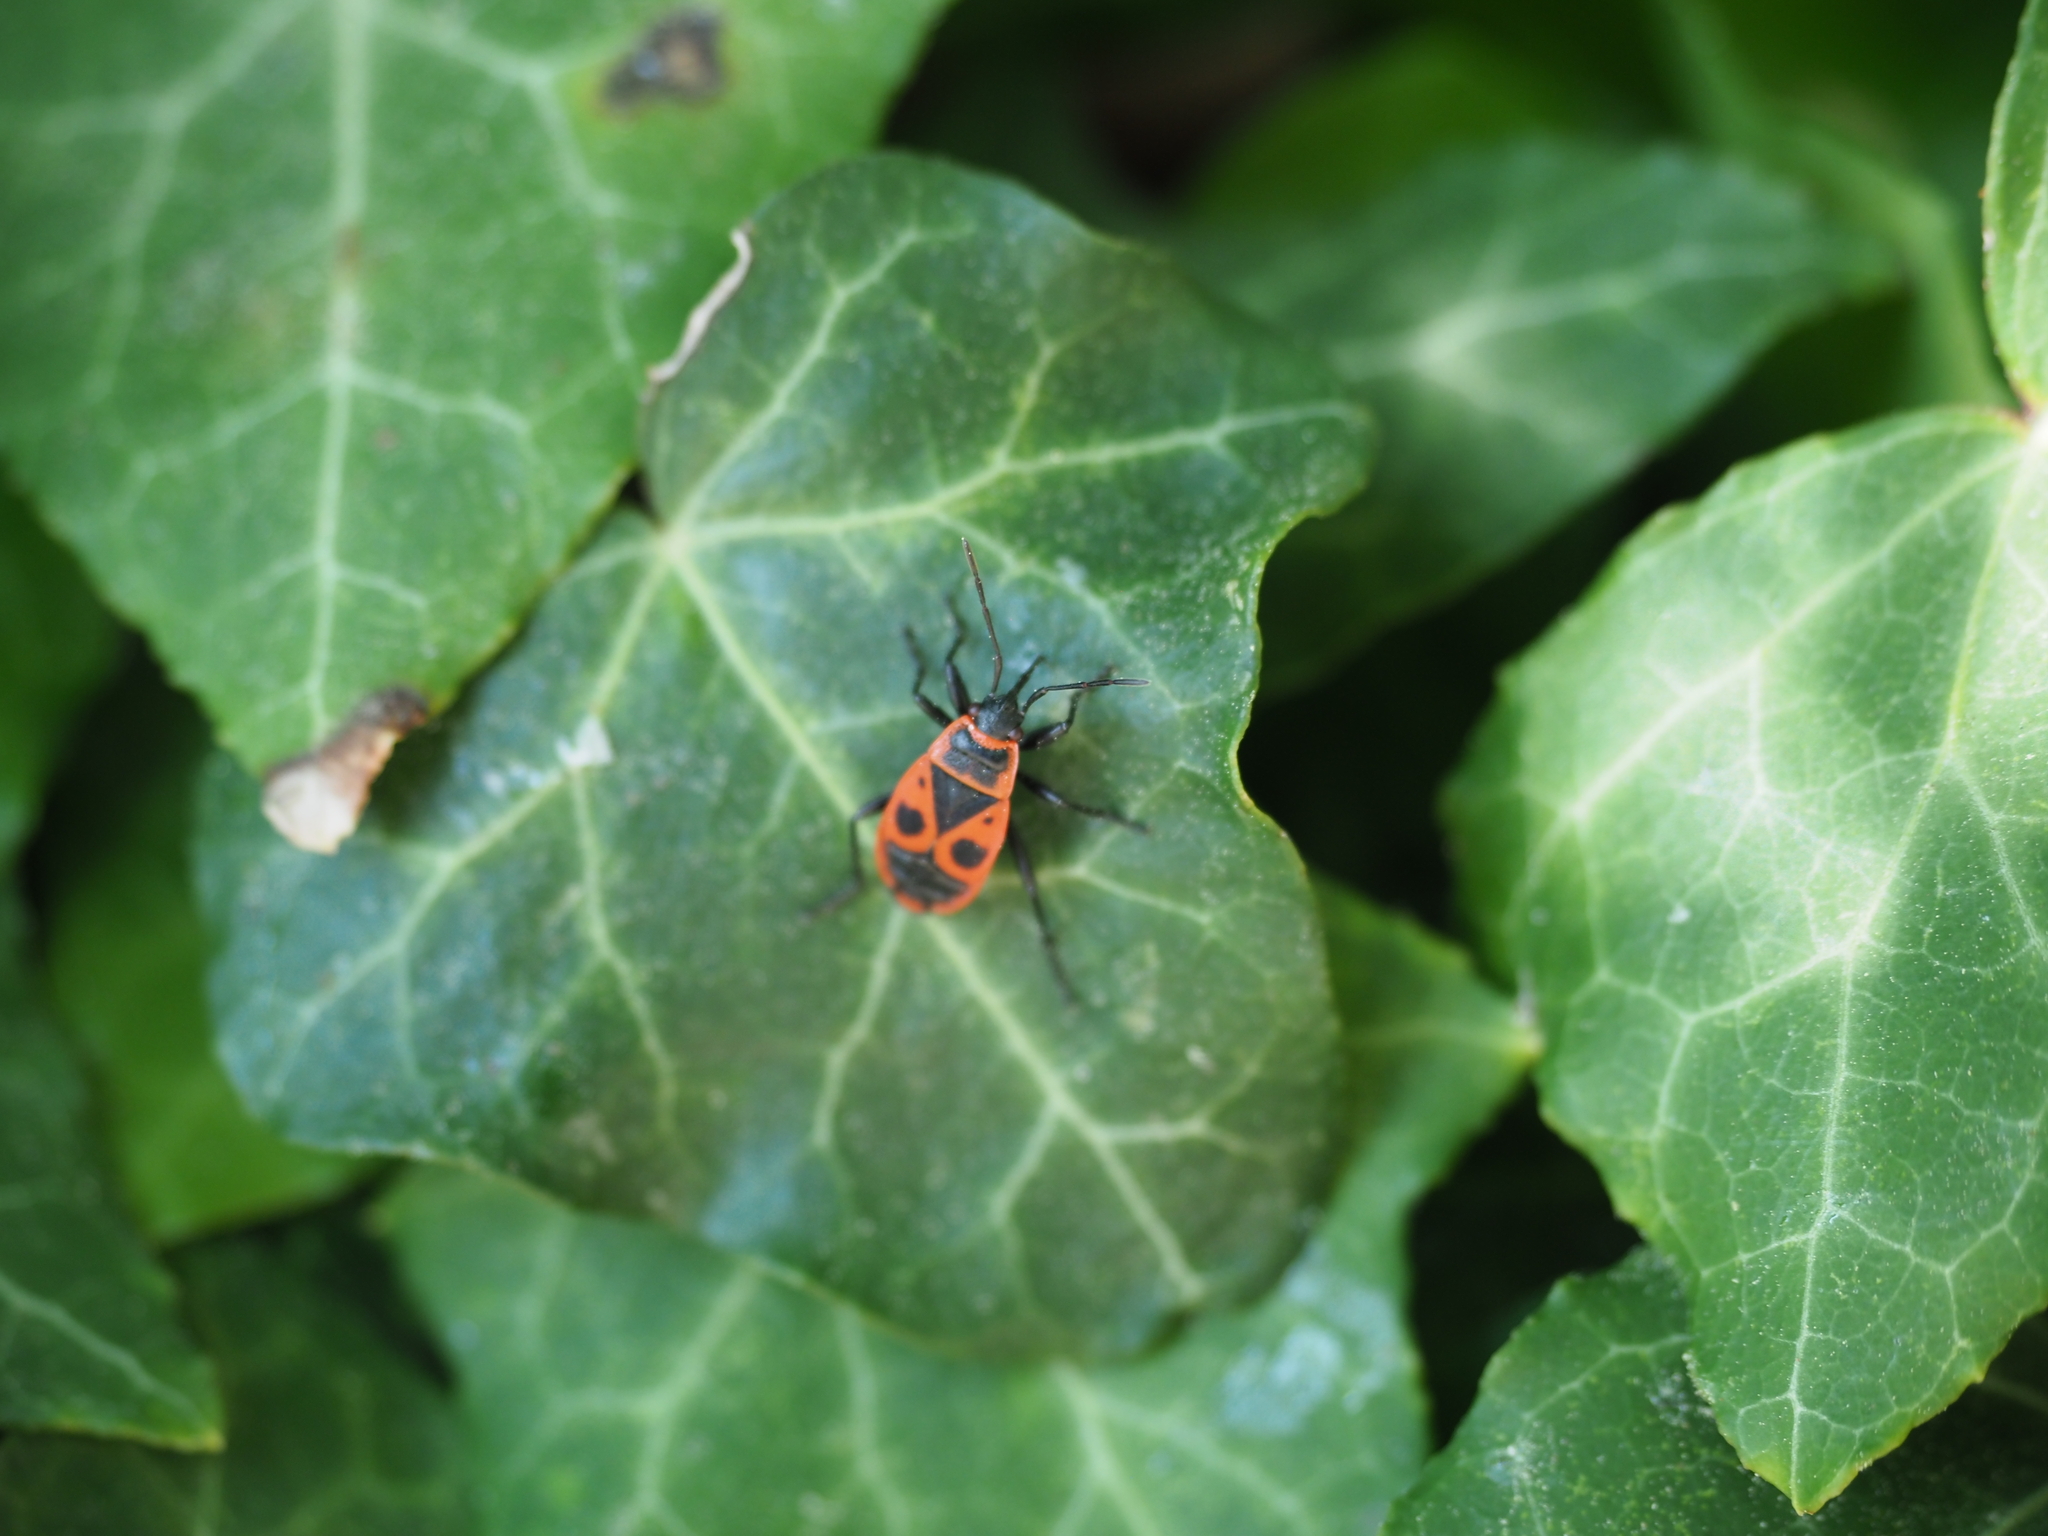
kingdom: Animalia
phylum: Arthropoda
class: Insecta
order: Hemiptera
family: Pyrrhocoridae
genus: Pyrrhocoris
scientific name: Pyrrhocoris apterus
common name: Firebug
